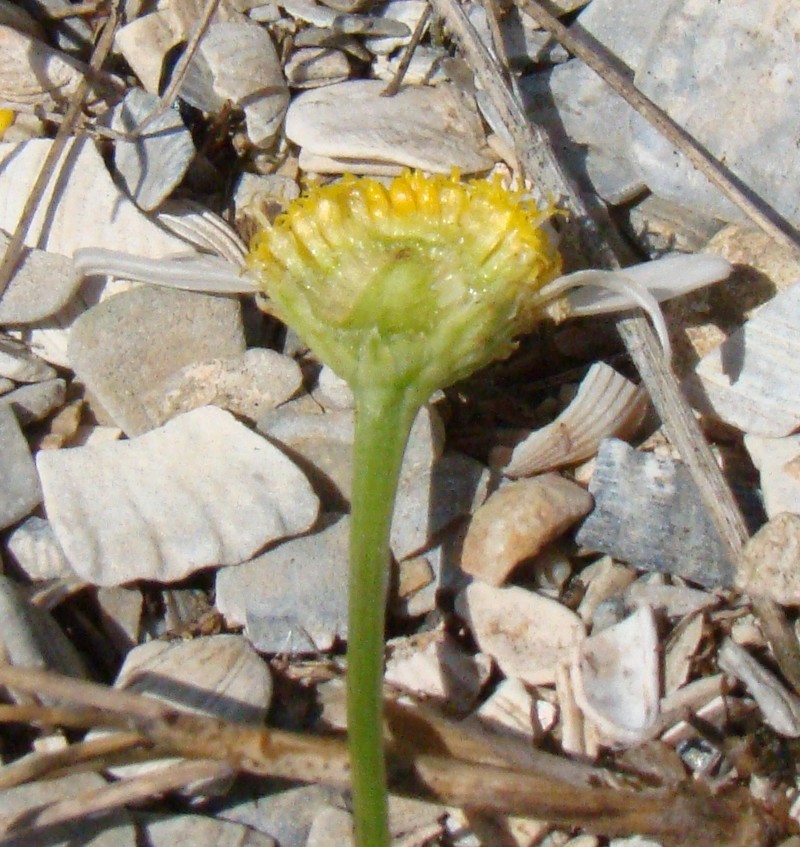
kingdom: Plantae
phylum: Tracheophyta
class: Magnoliopsida
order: Asterales
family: Asteraceae
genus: Tripleurospermum
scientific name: Tripleurospermum inodorum
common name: Scentless mayweed
